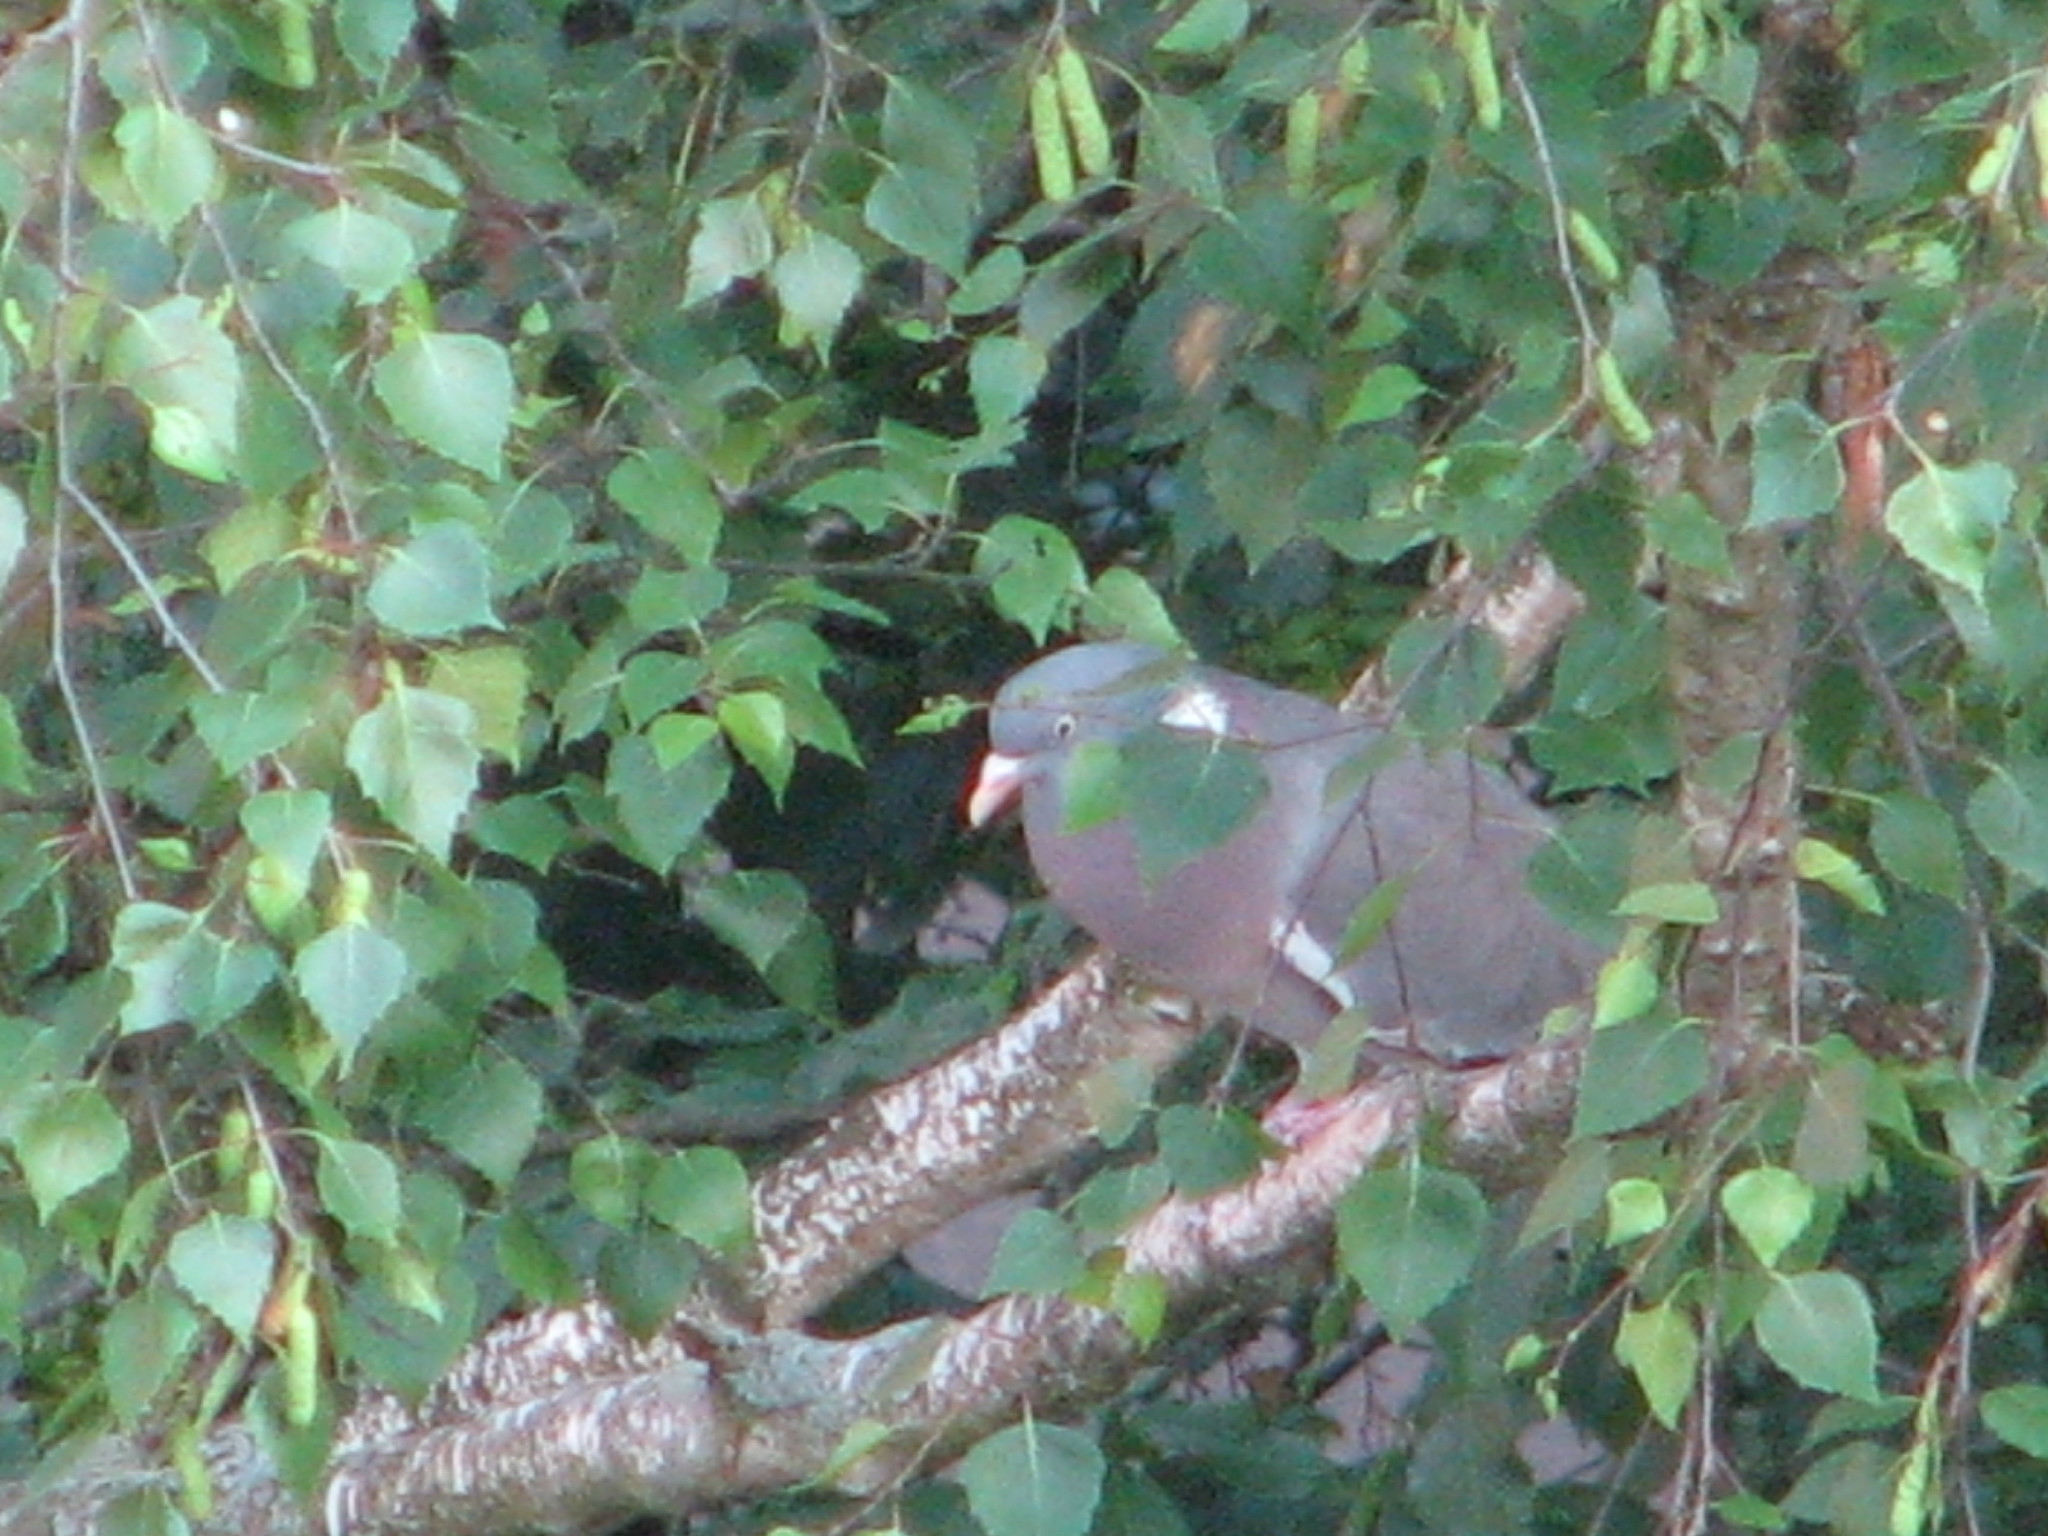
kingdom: Animalia
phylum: Chordata
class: Aves
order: Columbiformes
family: Columbidae
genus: Columba
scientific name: Columba palumbus
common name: Common wood pigeon
